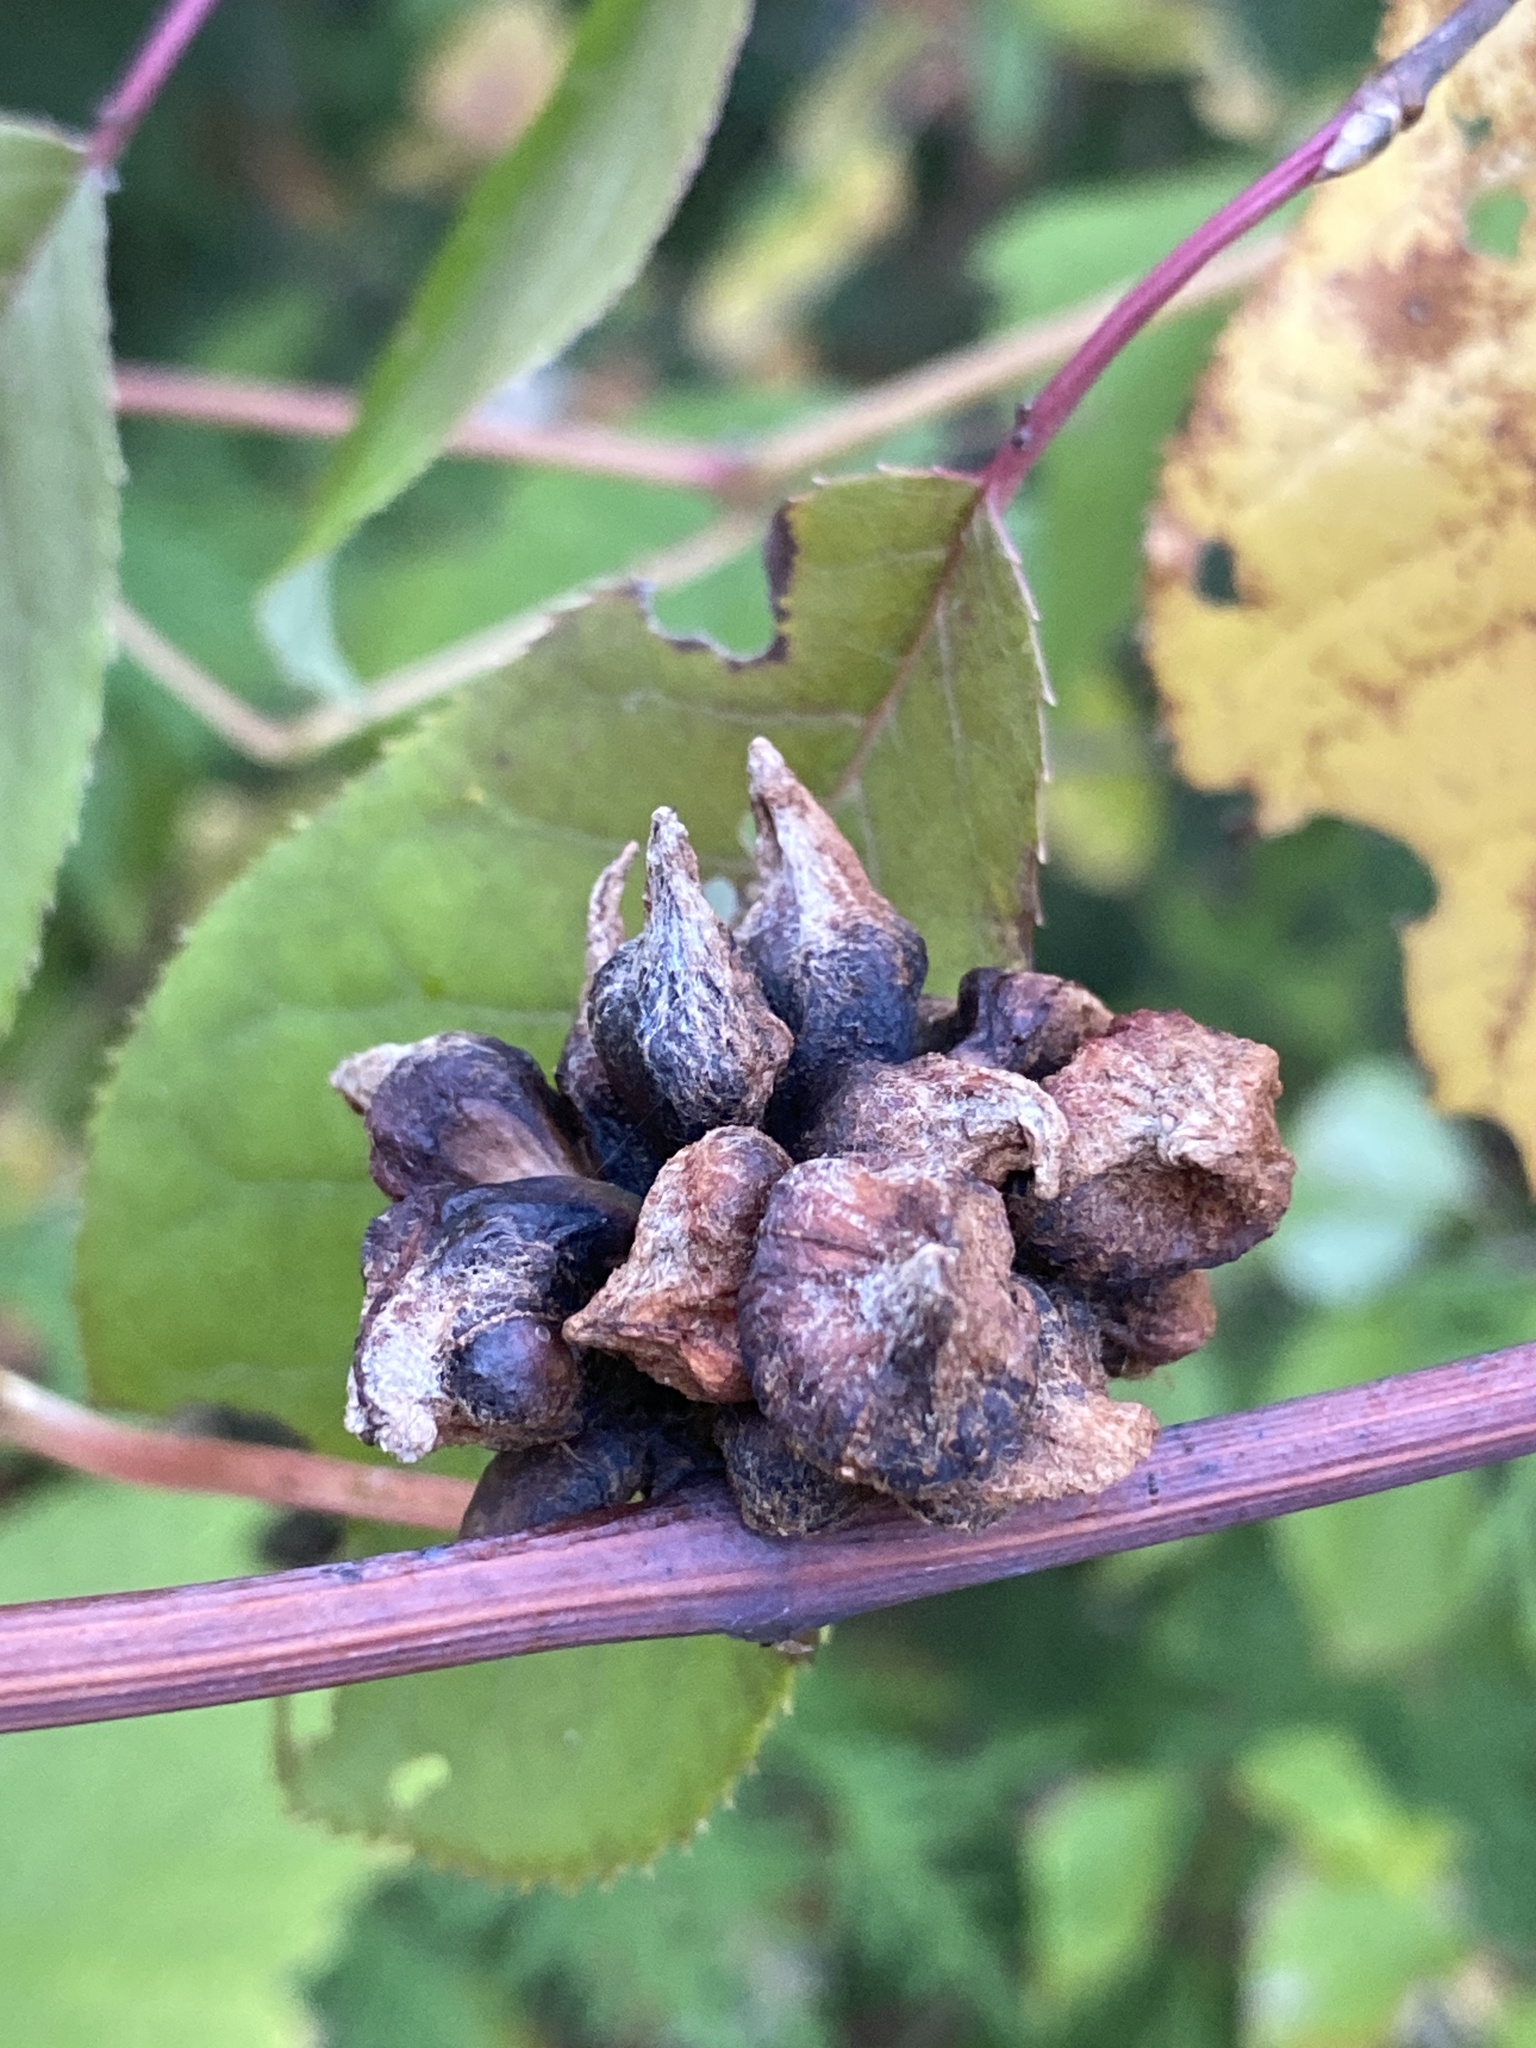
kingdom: Animalia
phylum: Arthropoda
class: Insecta
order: Diptera
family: Cecidomyiidae
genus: Ampelomyia
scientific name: Ampelomyia vitiscoryloides
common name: Grape filbert gall
